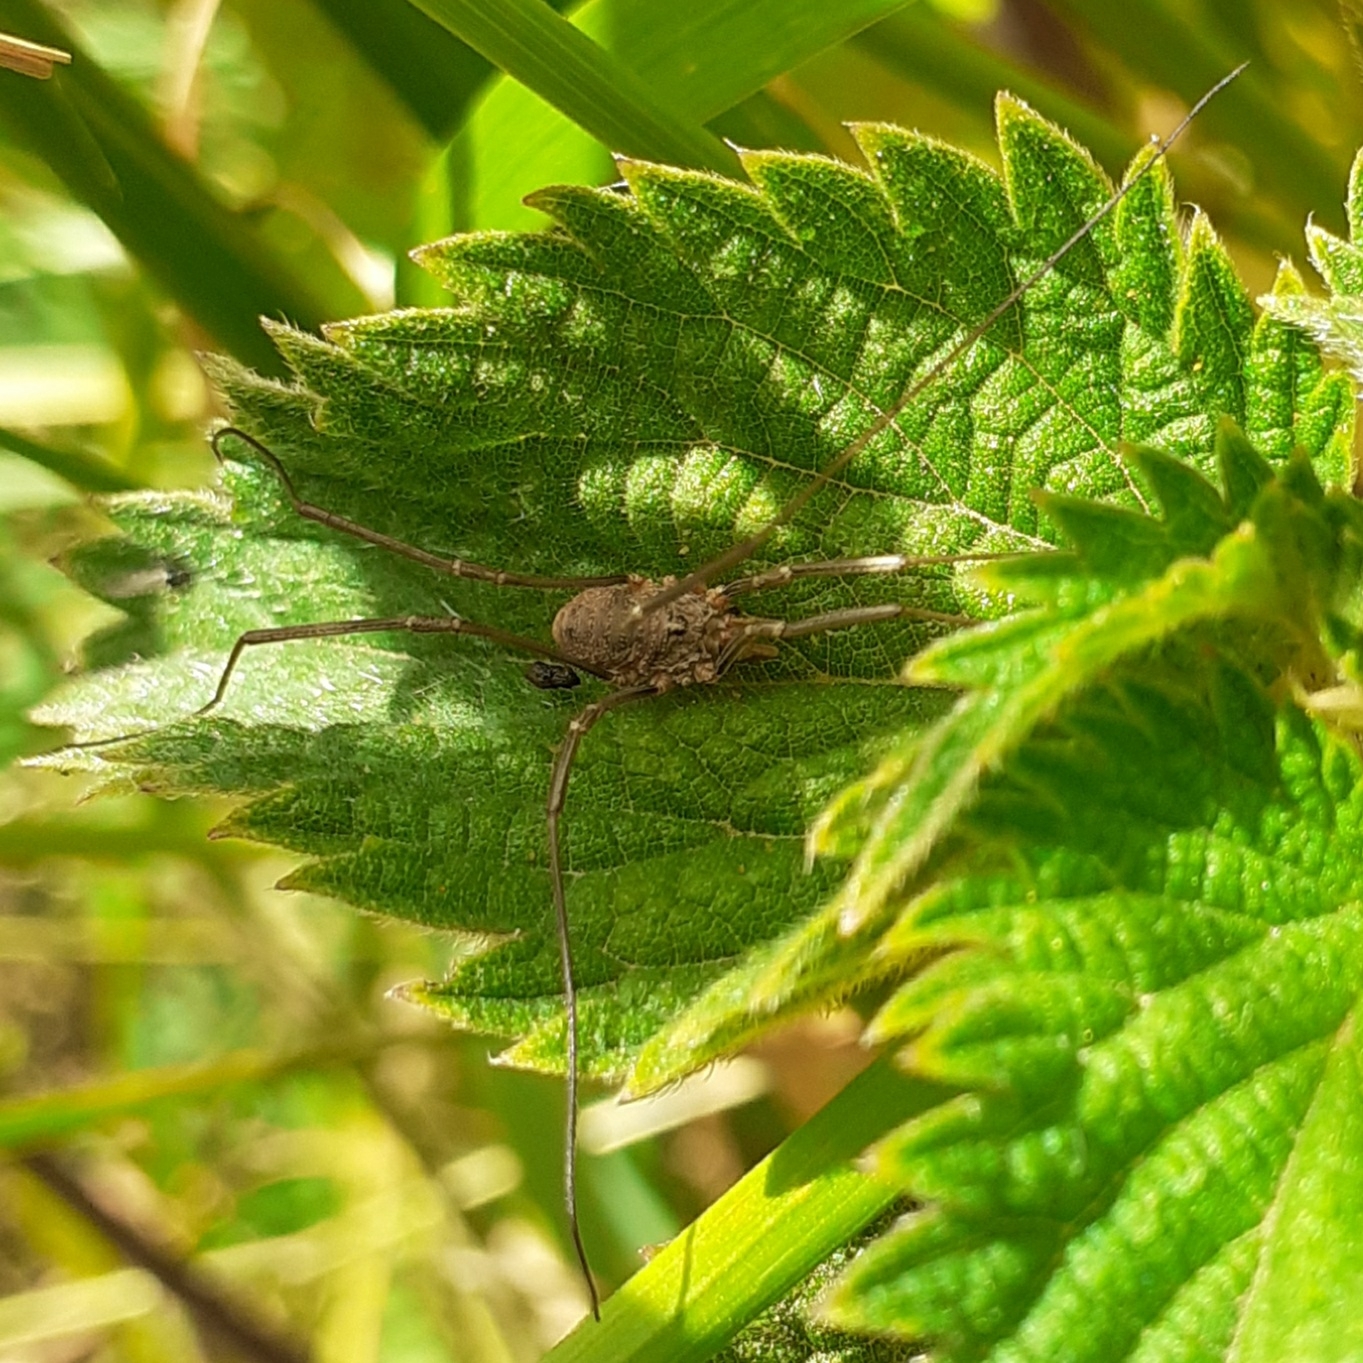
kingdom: Animalia
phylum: Arthropoda
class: Arachnida
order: Opiliones
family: Phalangiidae
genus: Phalangium
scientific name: Phalangium opilio
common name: Daddy longleg
